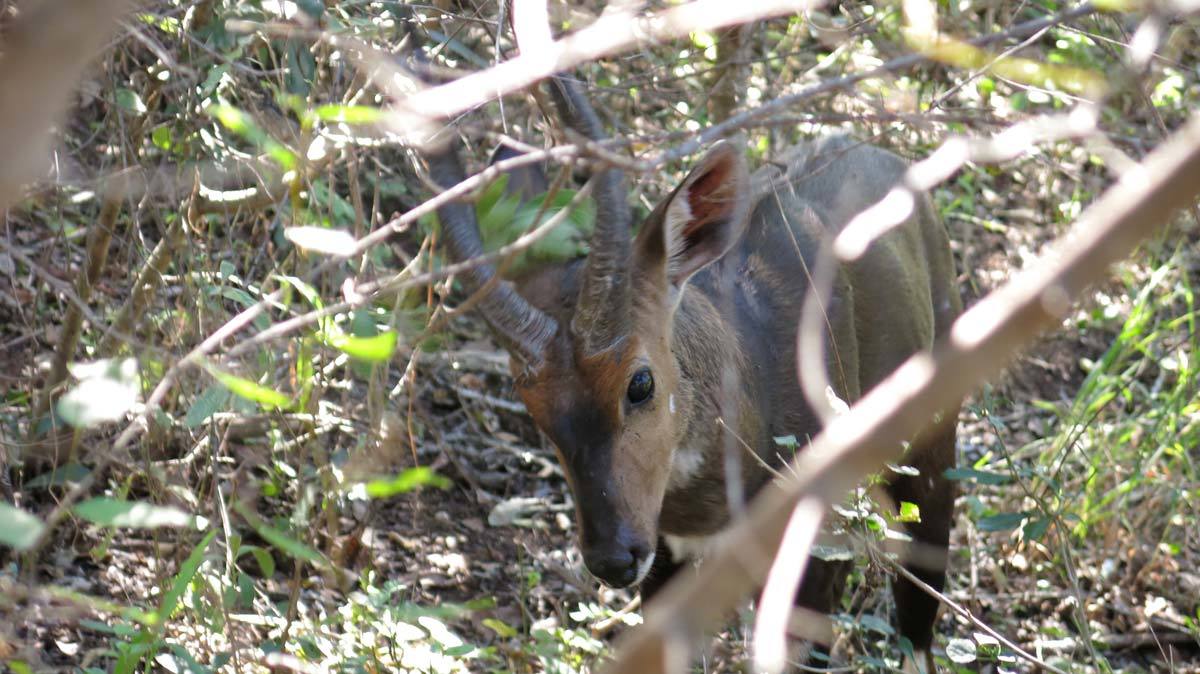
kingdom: Animalia
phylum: Chordata
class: Mammalia
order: Artiodactyla
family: Bovidae
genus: Tragelaphus
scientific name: Tragelaphus scriptus
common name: Bushbuck
